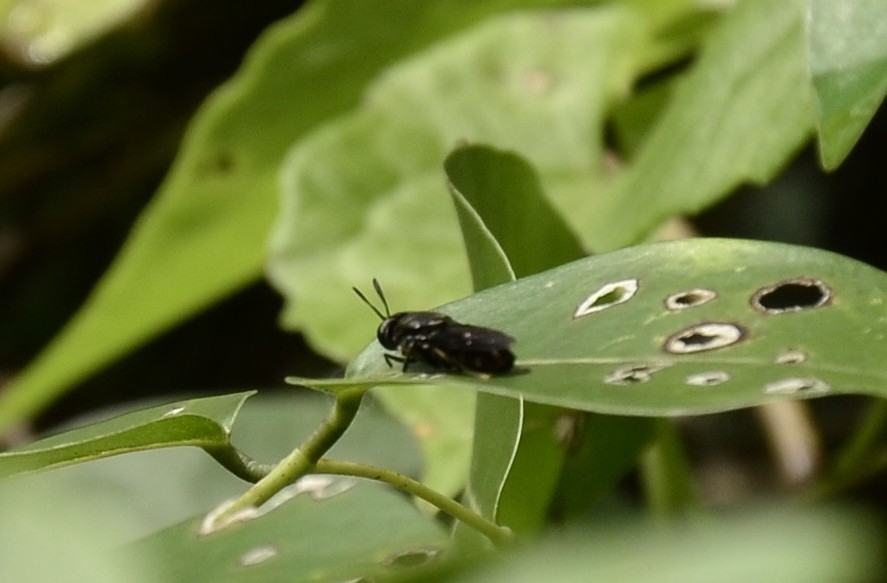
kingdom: Animalia
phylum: Arthropoda
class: Insecta
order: Diptera
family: Stratiomyidae
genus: Hermetia
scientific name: Hermetia illucens
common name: Black soldier fly
